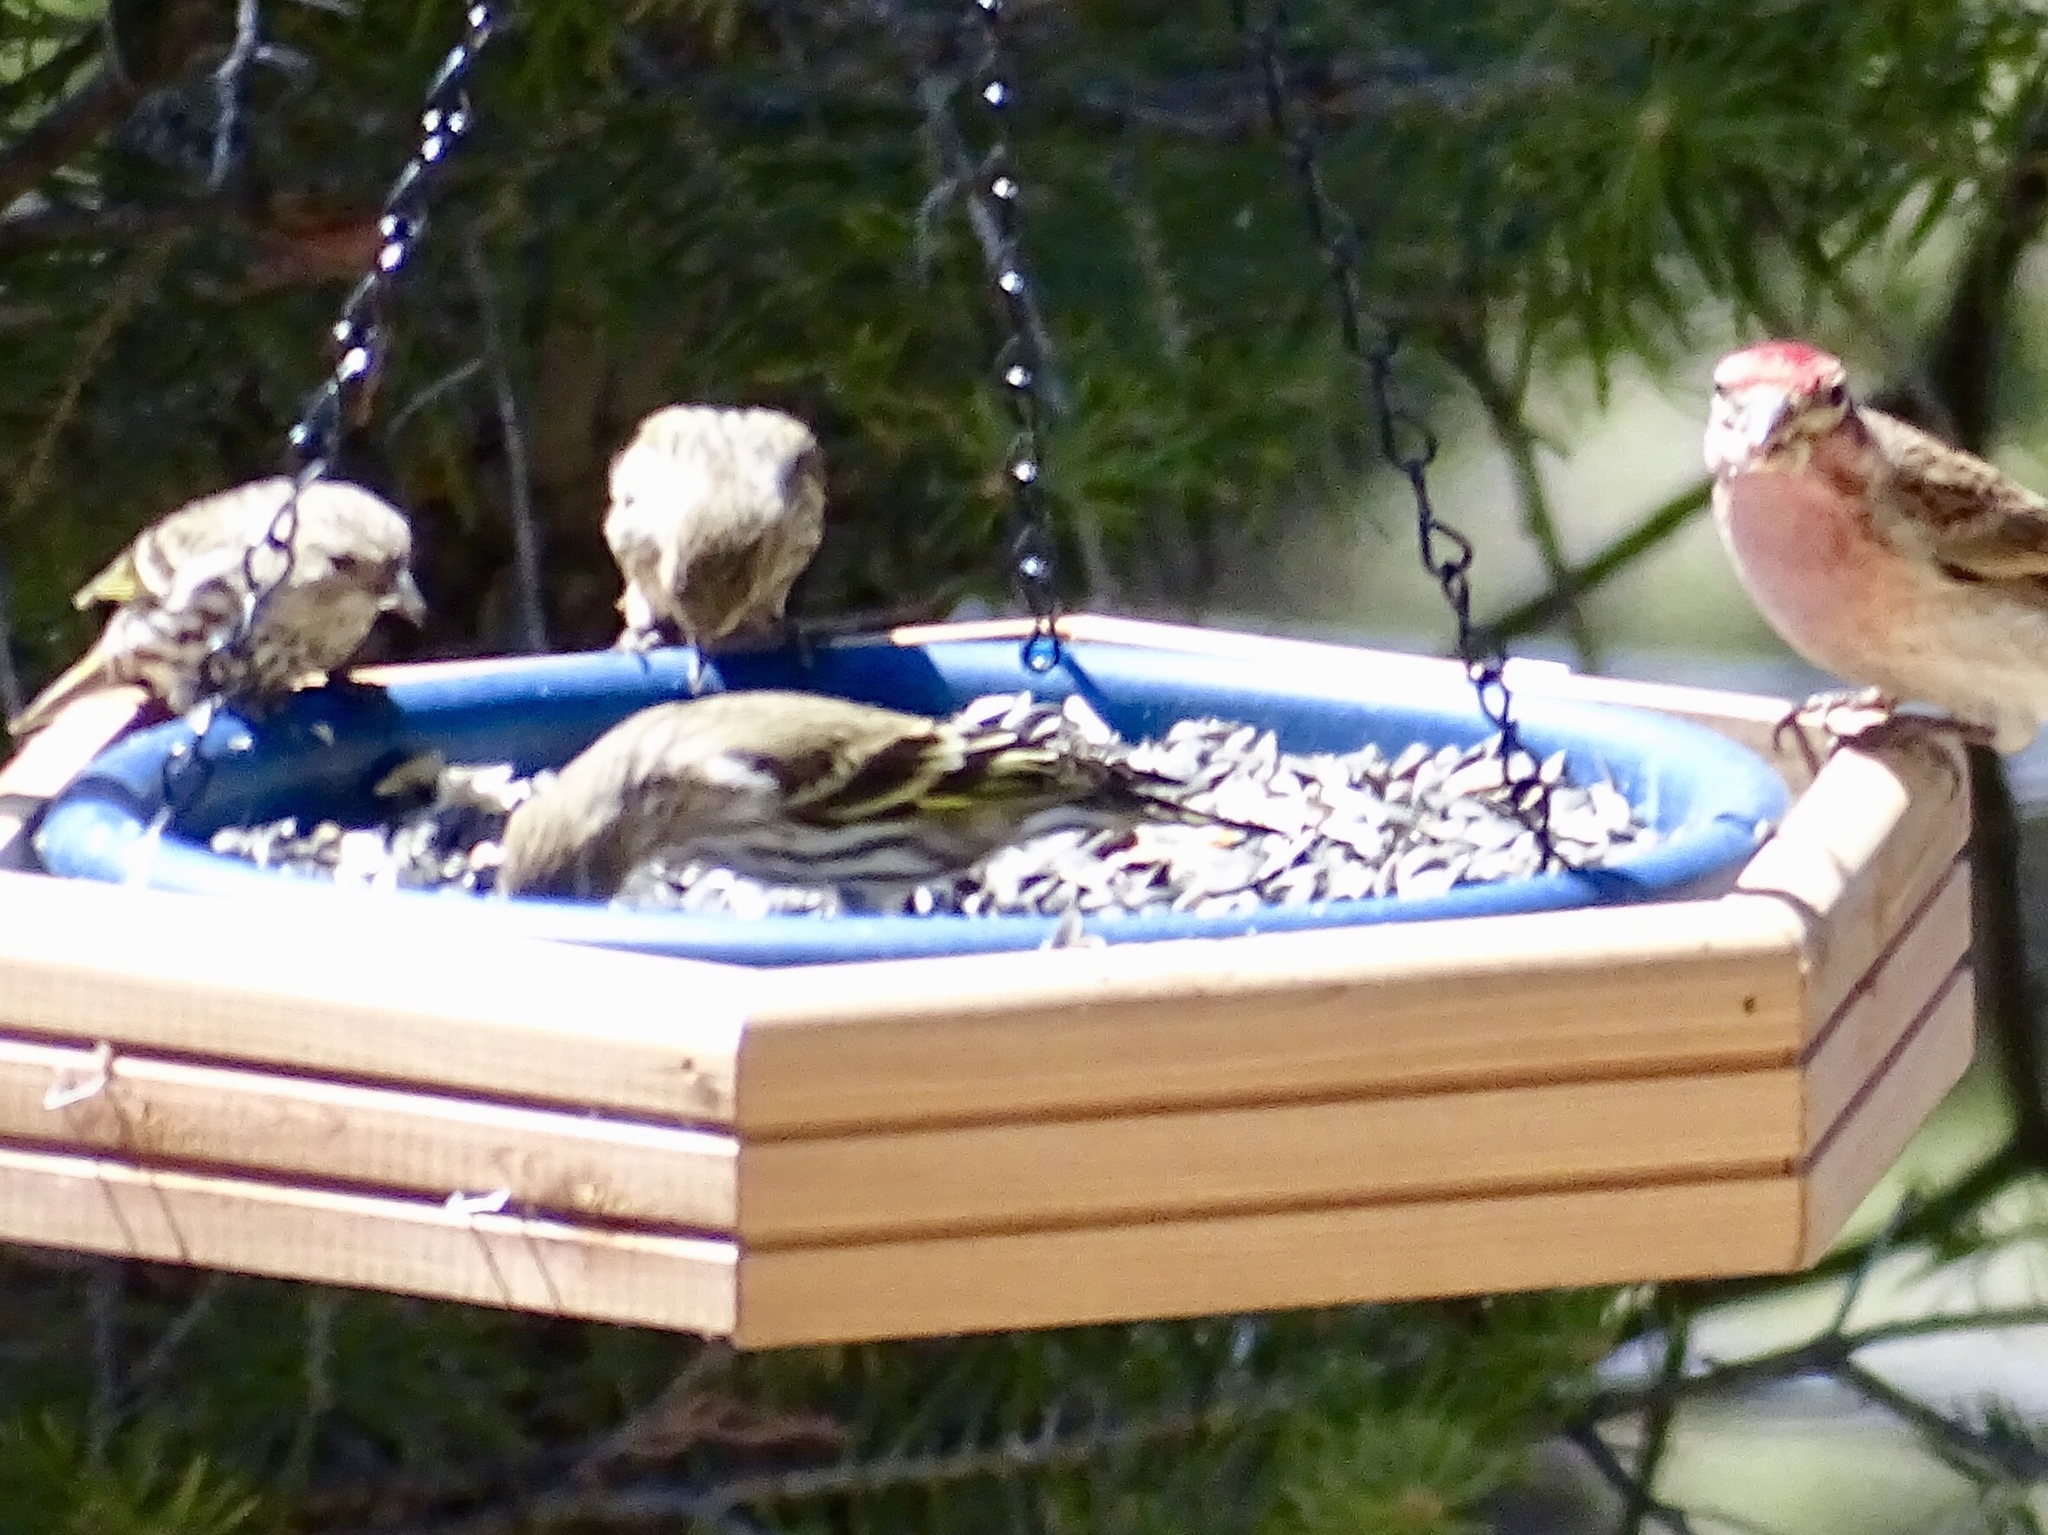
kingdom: Animalia
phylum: Chordata
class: Aves
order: Passeriformes
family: Fringillidae
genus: Spinus
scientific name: Spinus pinus
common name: Pine siskin
